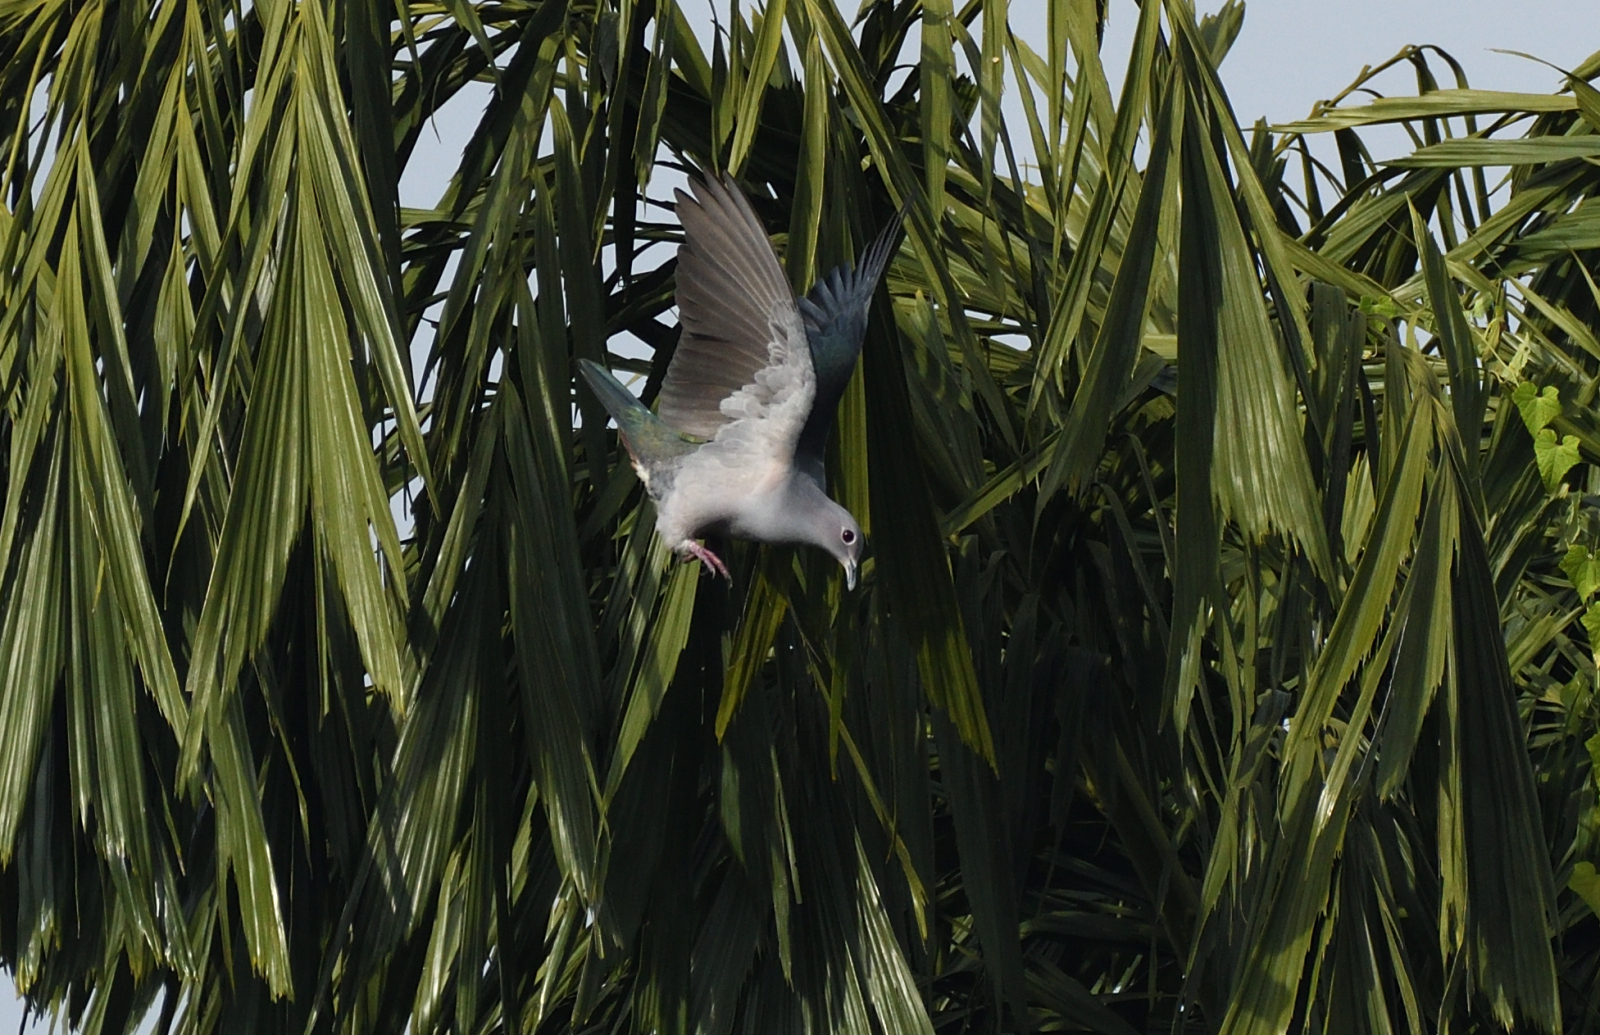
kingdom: Animalia
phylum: Chordata
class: Aves
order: Columbiformes
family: Columbidae
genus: Ducula
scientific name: Ducula aenea
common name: Green imperial pigeon
